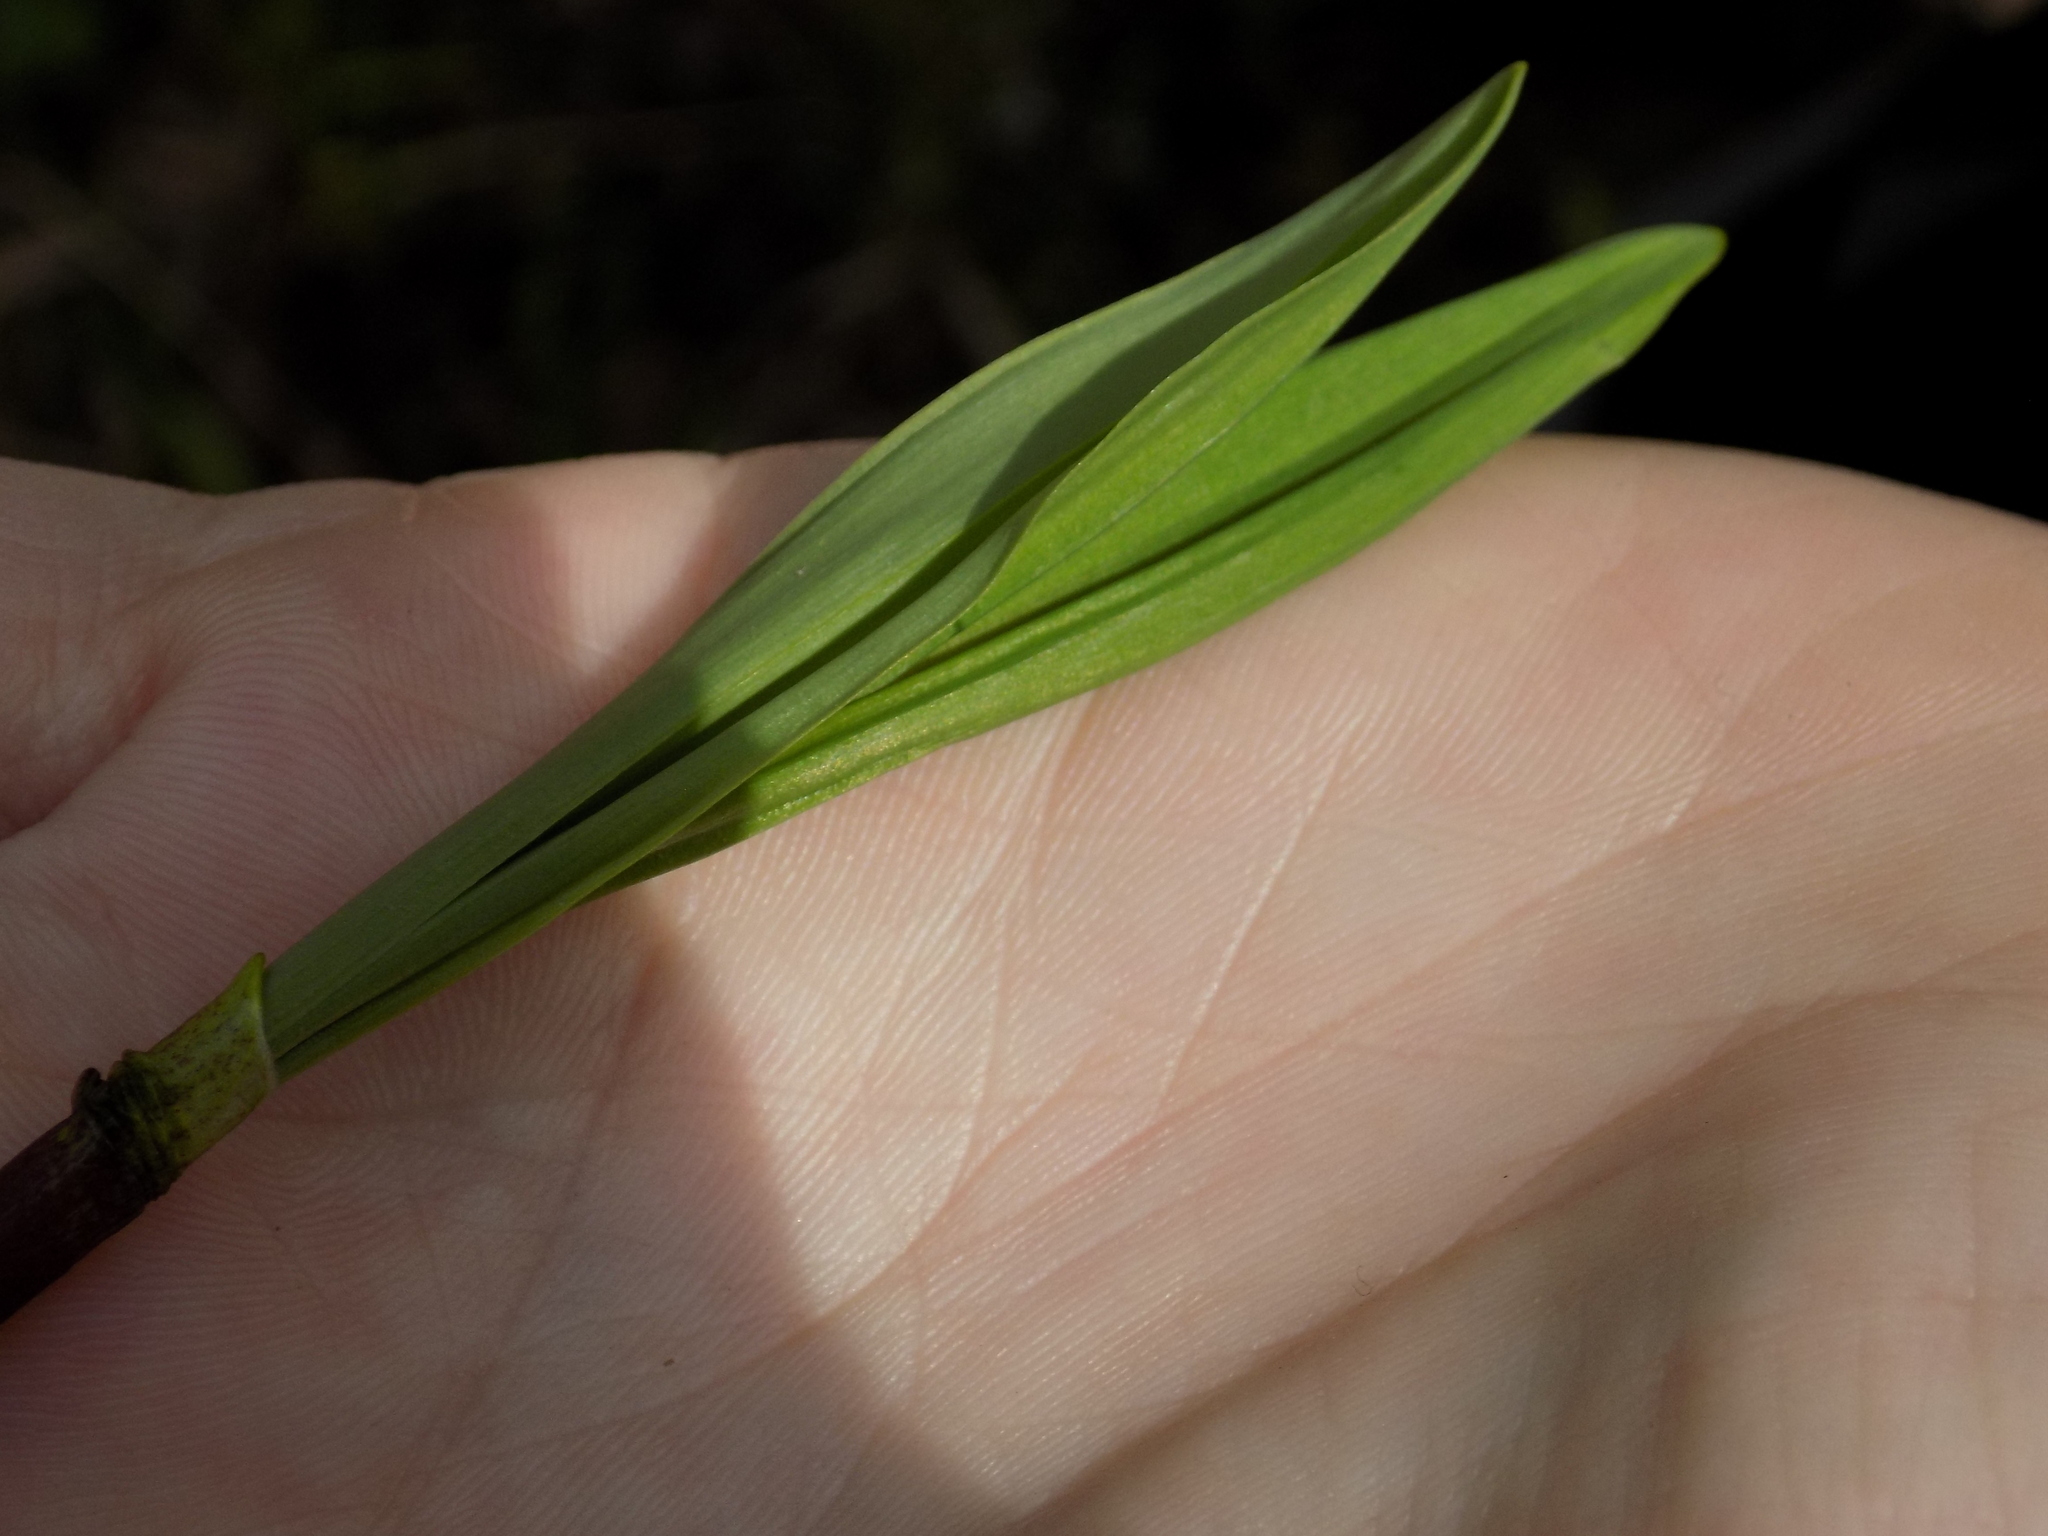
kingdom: Plantae
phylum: Tracheophyta
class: Liliopsida
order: Asparagales
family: Amaryllidaceae
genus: Allium
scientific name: Allium microdictyon
